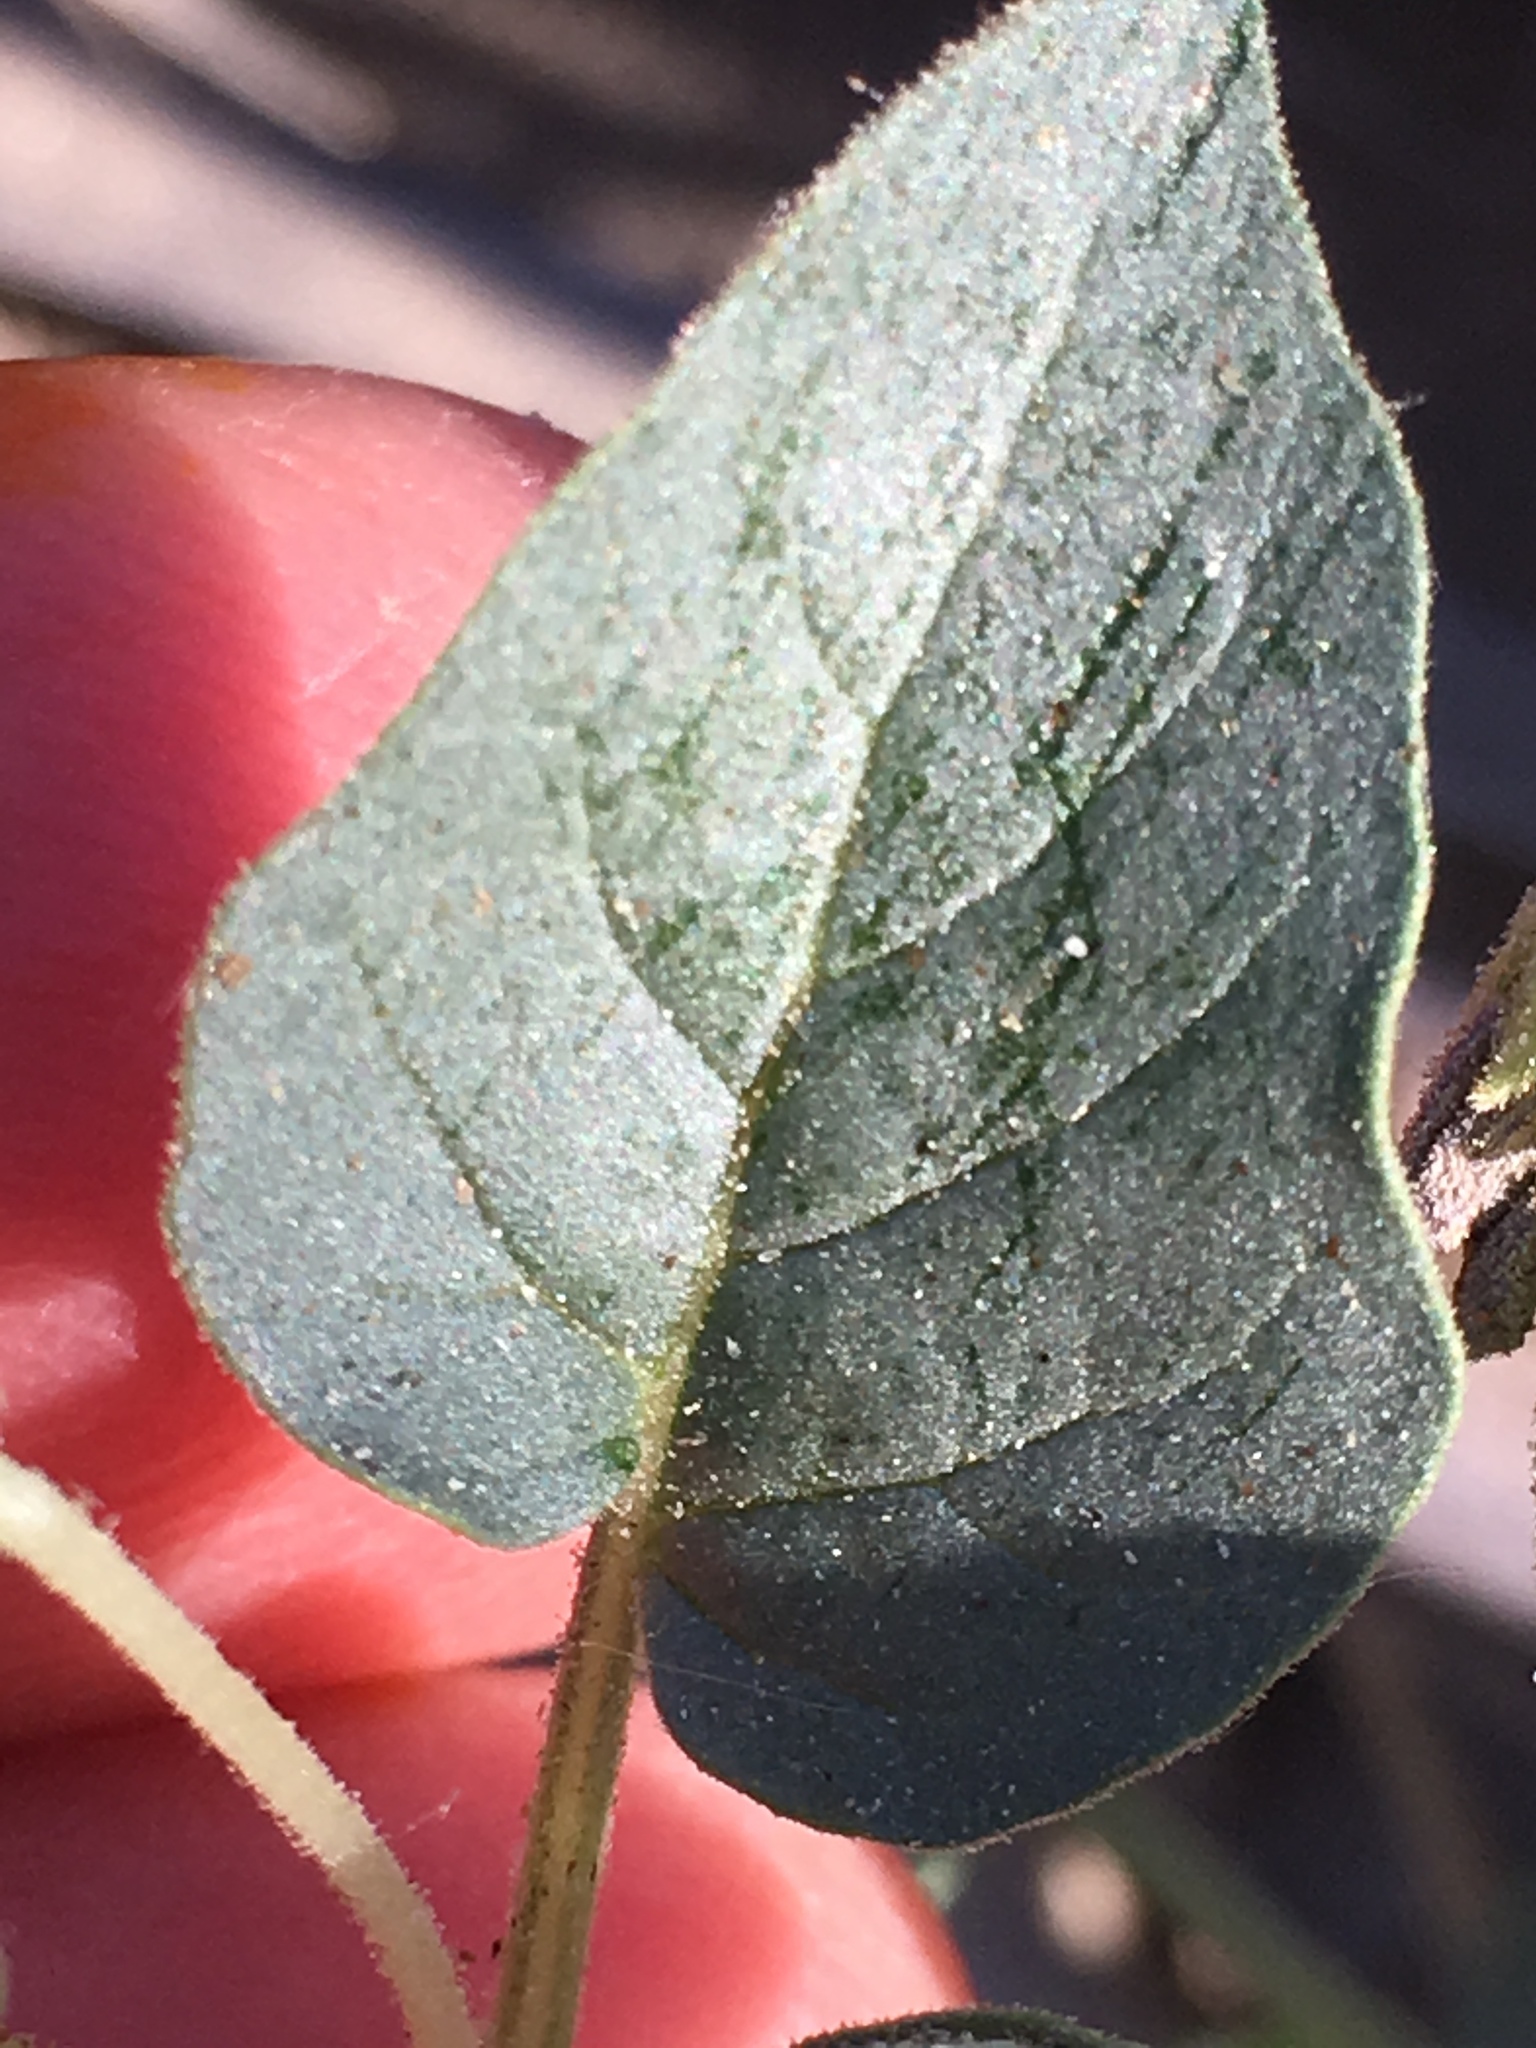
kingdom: Plantae
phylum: Tracheophyta
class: Magnoliopsida
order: Solanales
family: Solanaceae
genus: Physalis
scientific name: Physalis crassifolia
